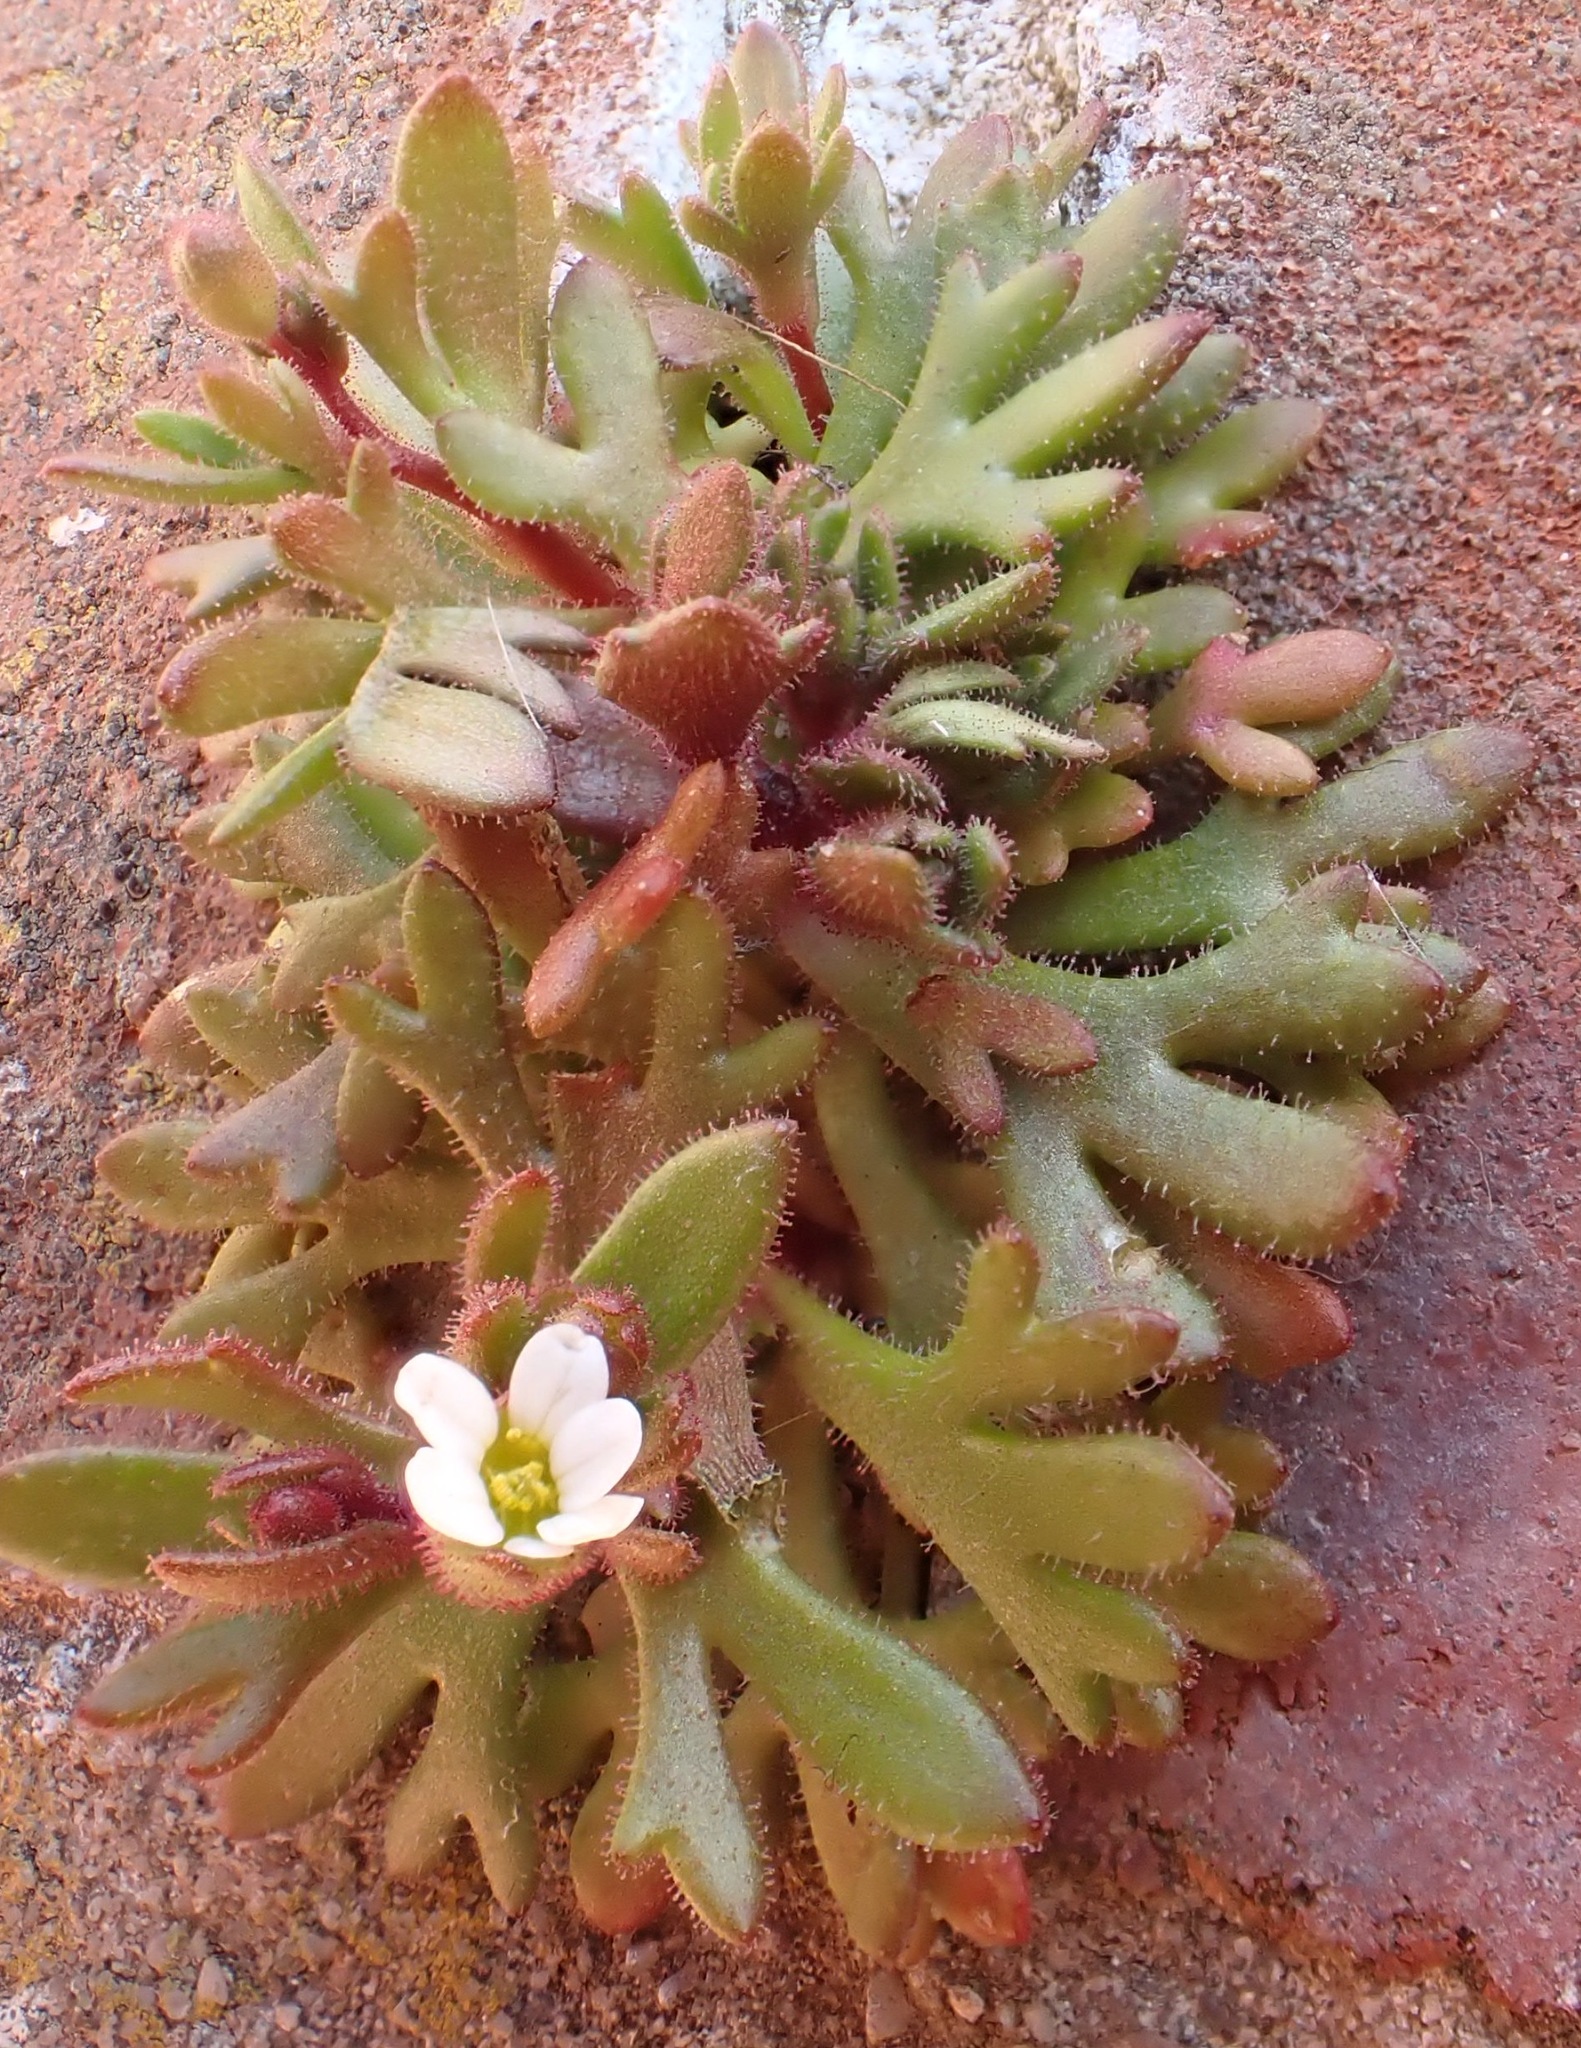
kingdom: Plantae
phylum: Tracheophyta
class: Magnoliopsida
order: Saxifragales
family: Saxifragaceae
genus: Saxifraga
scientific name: Saxifraga tridactylites
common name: Rue-leaved saxifrage
